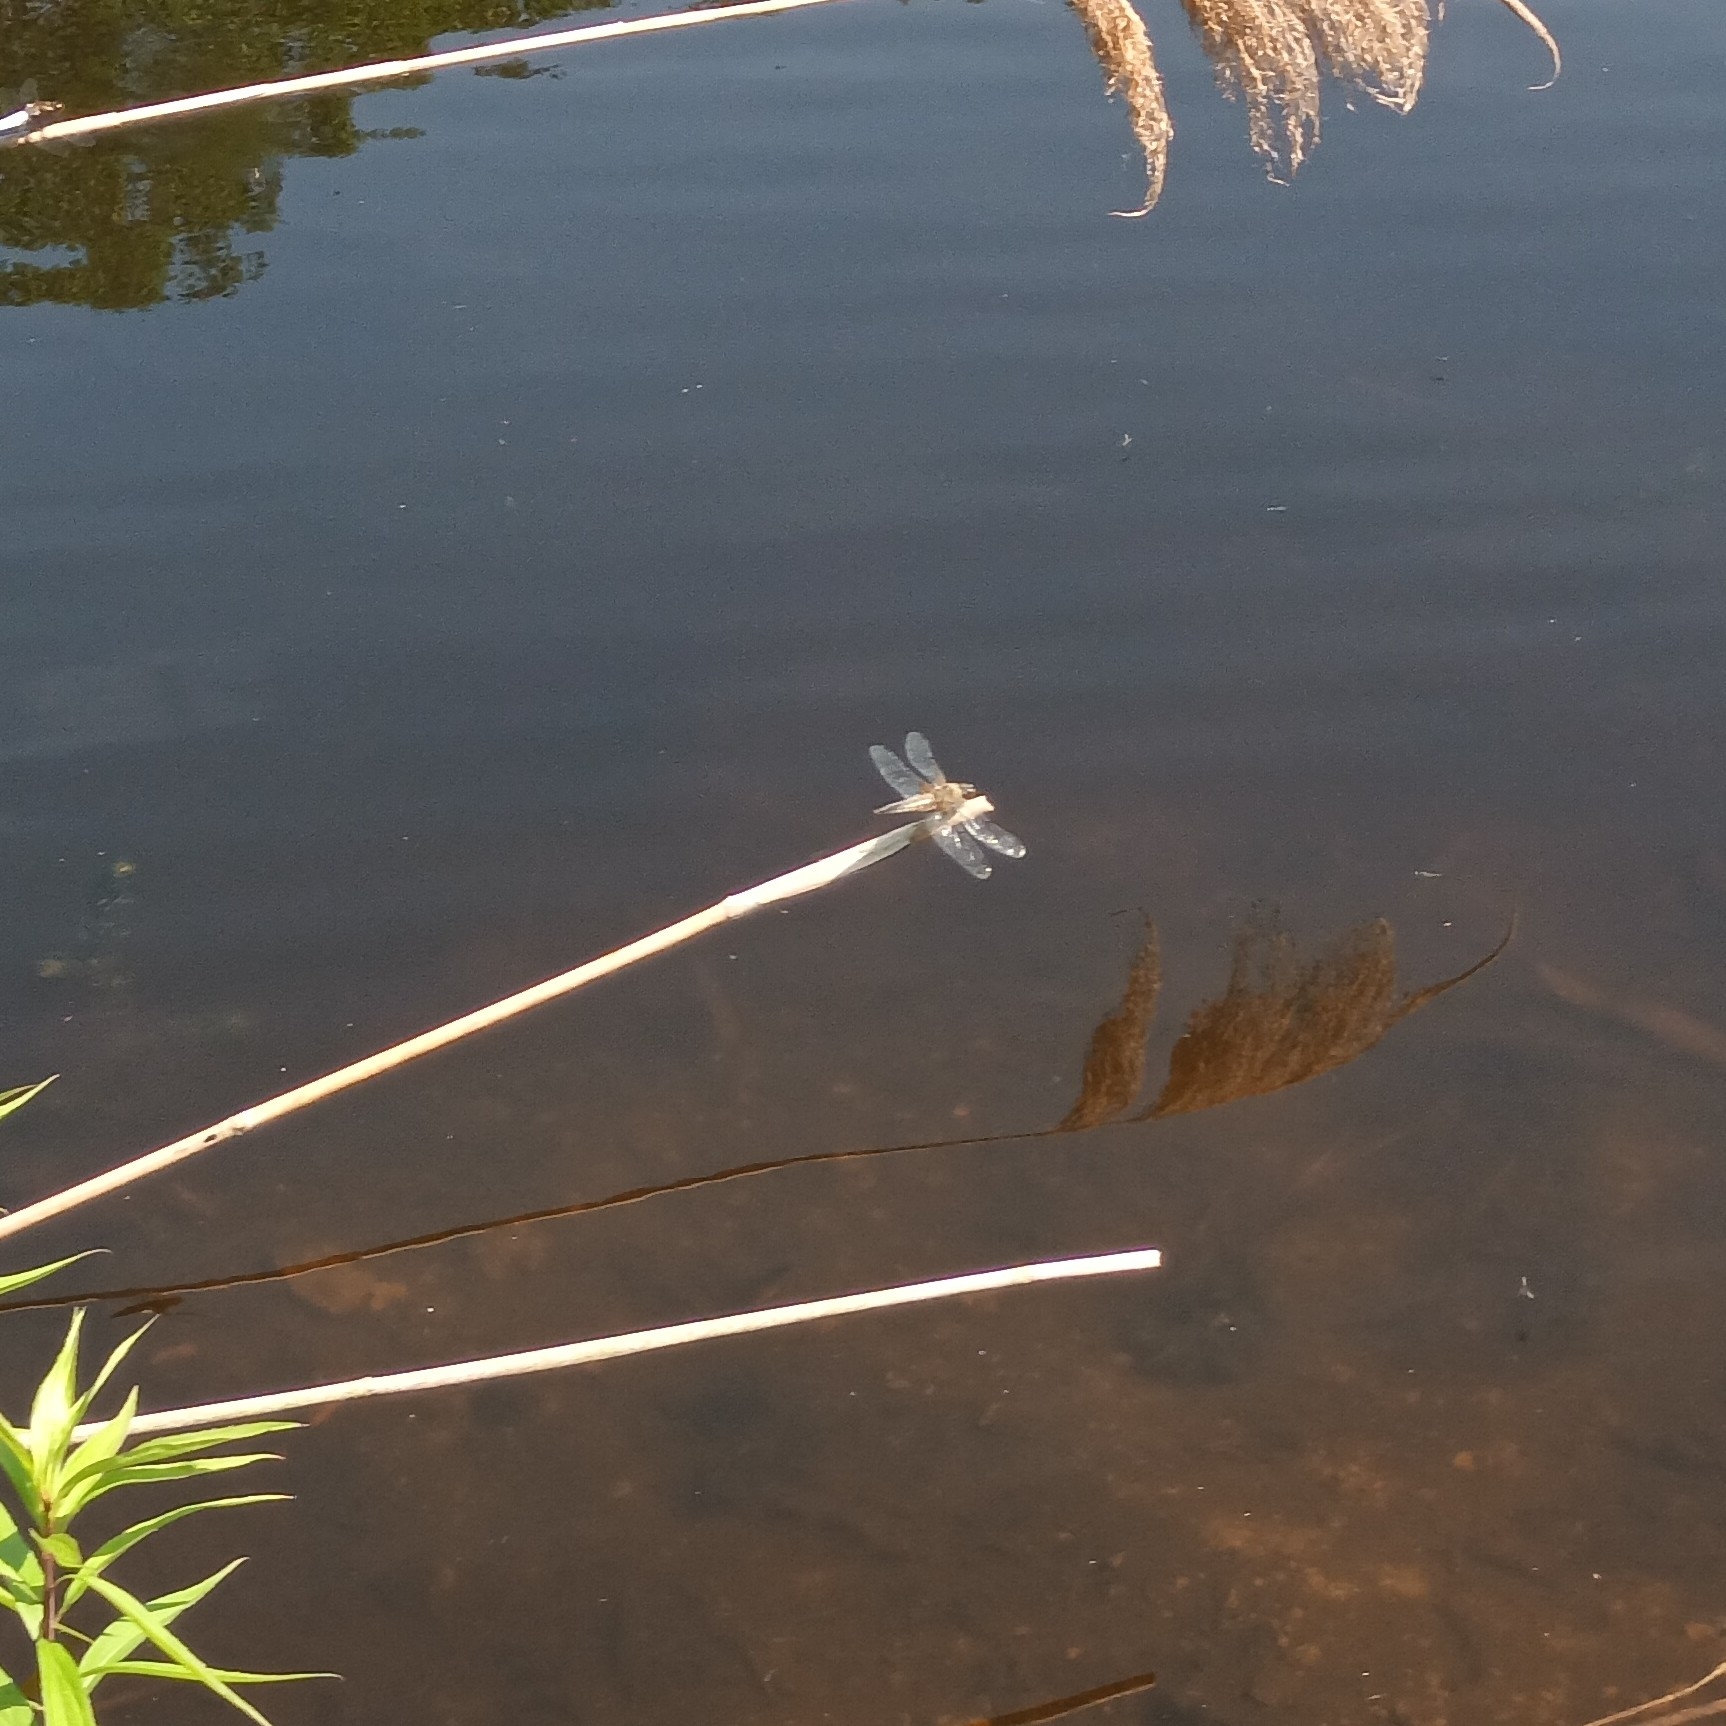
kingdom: Animalia
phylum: Arthropoda
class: Insecta
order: Odonata
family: Libellulidae
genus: Libellula
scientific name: Libellula quadrimaculata
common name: Four-spotted chaser
